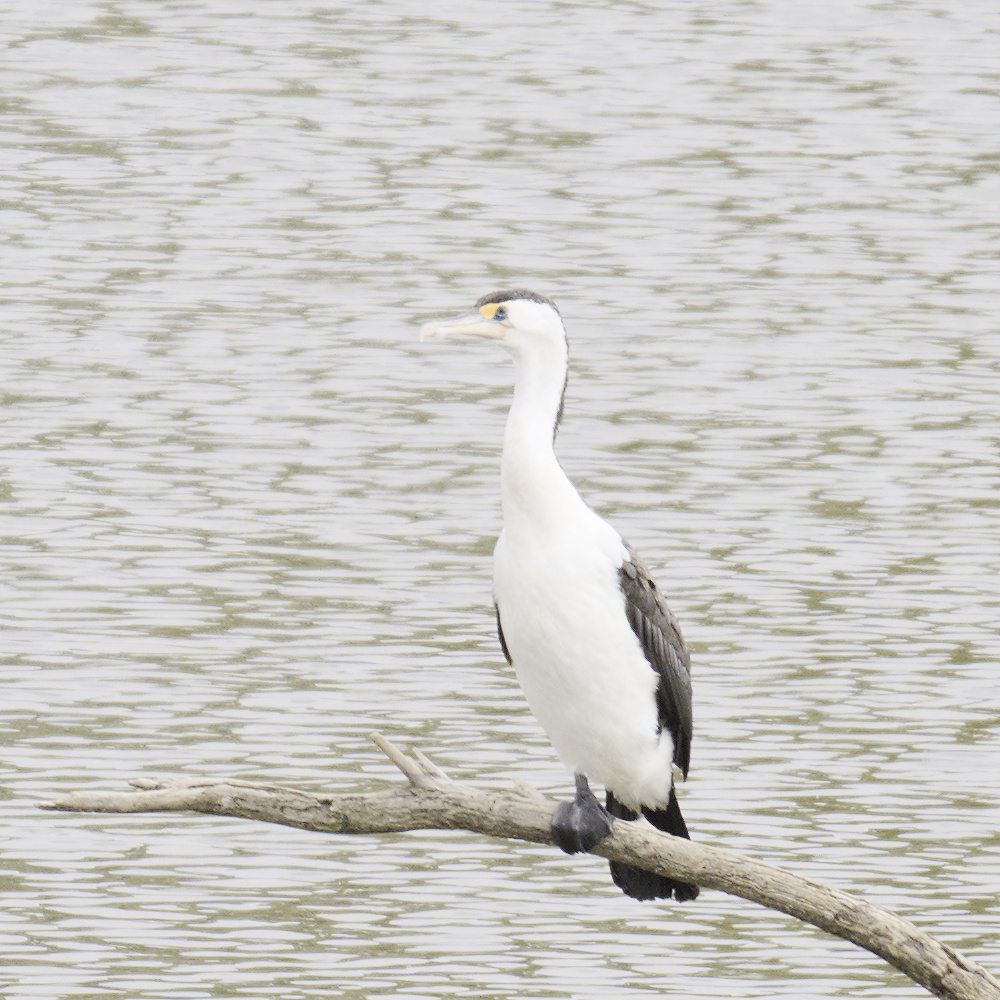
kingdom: Animalia
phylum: Chordata
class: Aves
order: Suliformes
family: Phalacrocoracidae
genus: Phalacrocorax
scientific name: Phalacrocorax varius
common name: Pied cormorant
